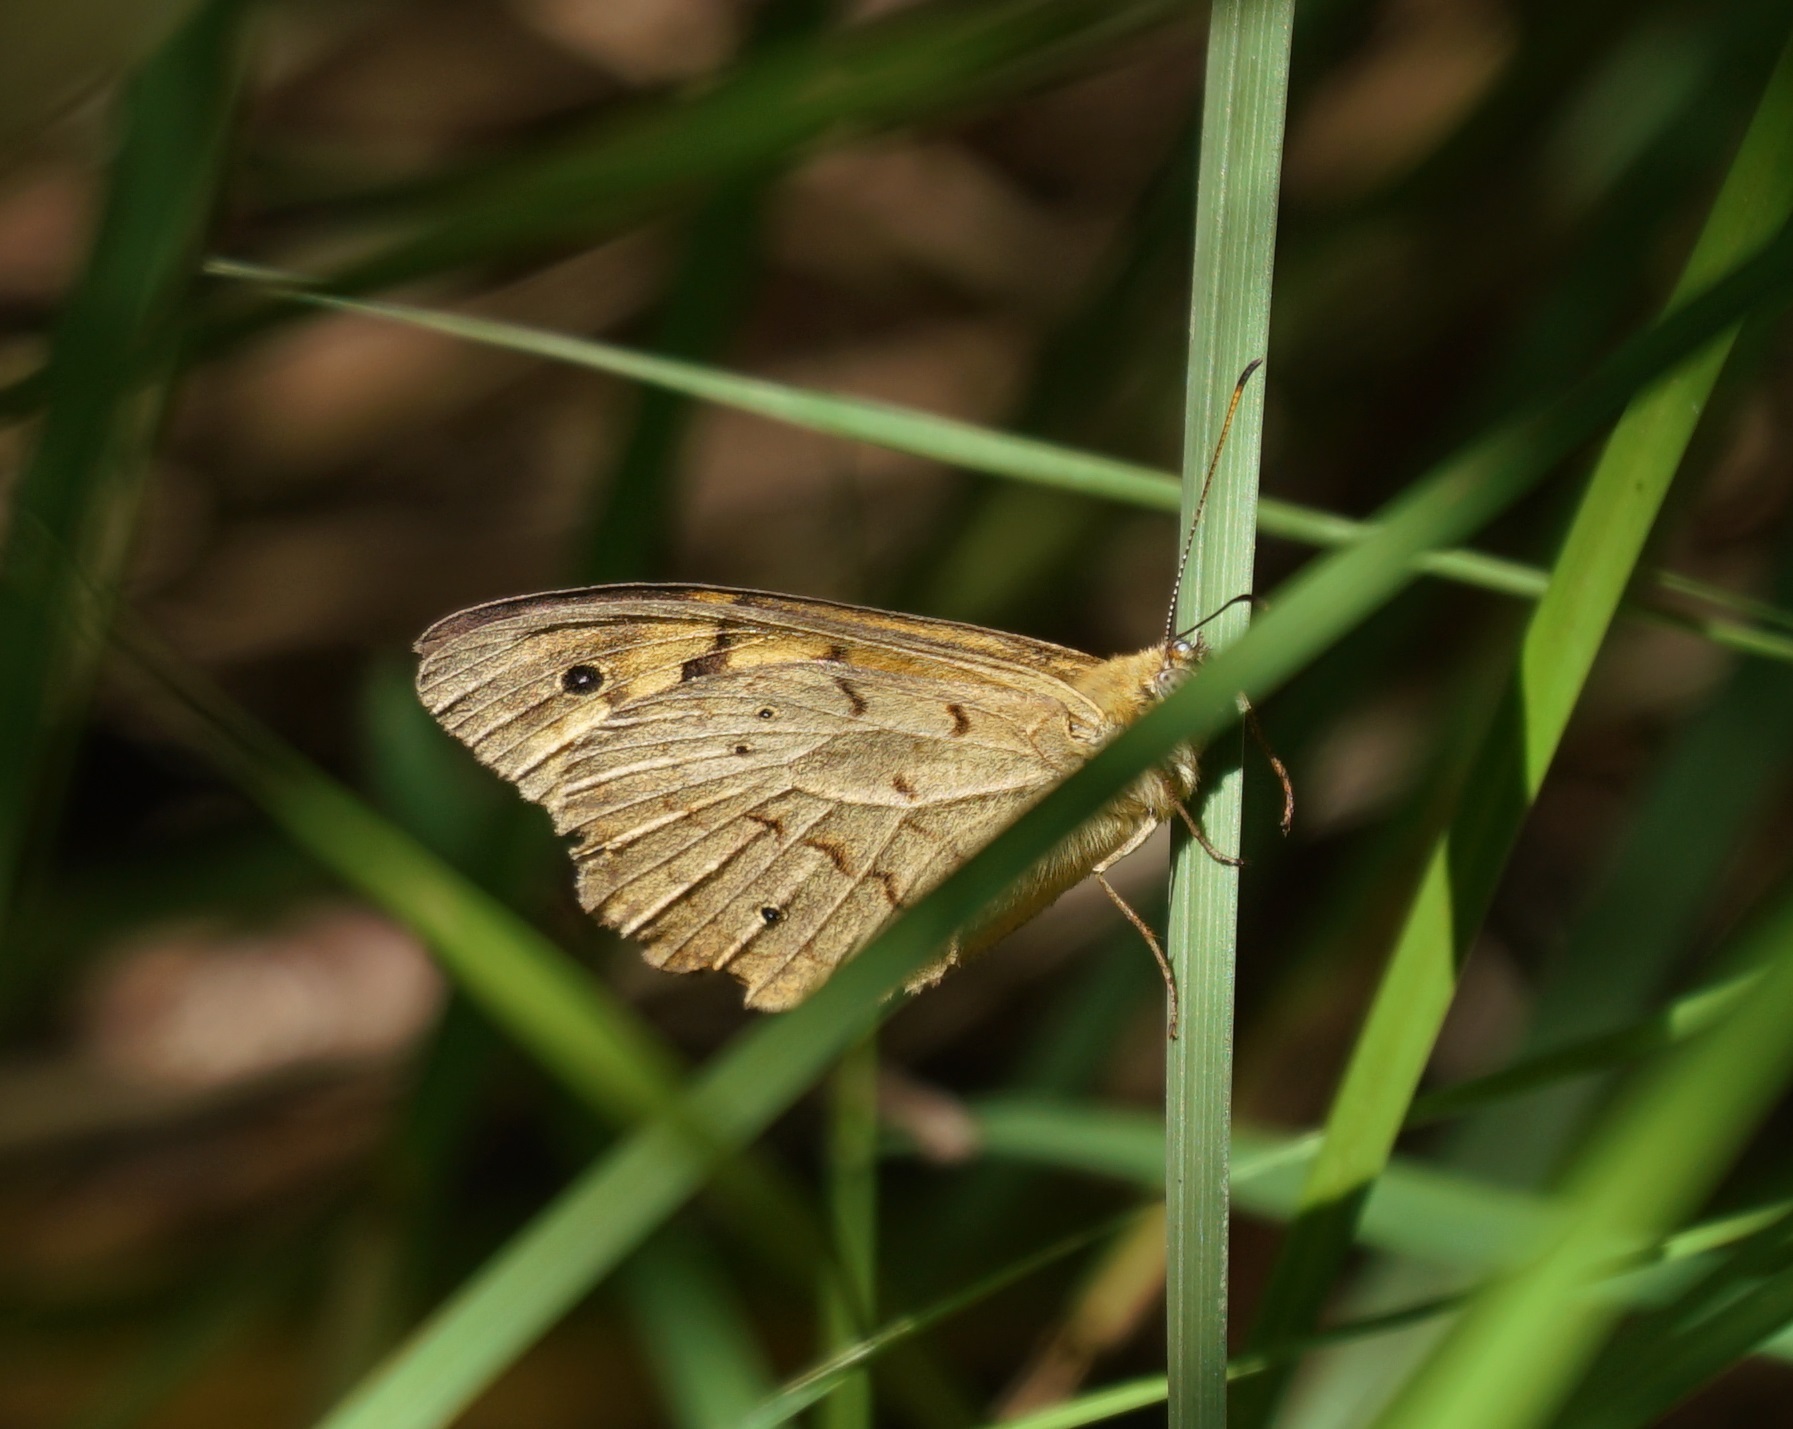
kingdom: Animalia
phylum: Arthropoda
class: Insecta
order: Lepidoptera
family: Nymphalidae
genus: Heteronympha
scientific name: Heteronympha merope
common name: Common brown
